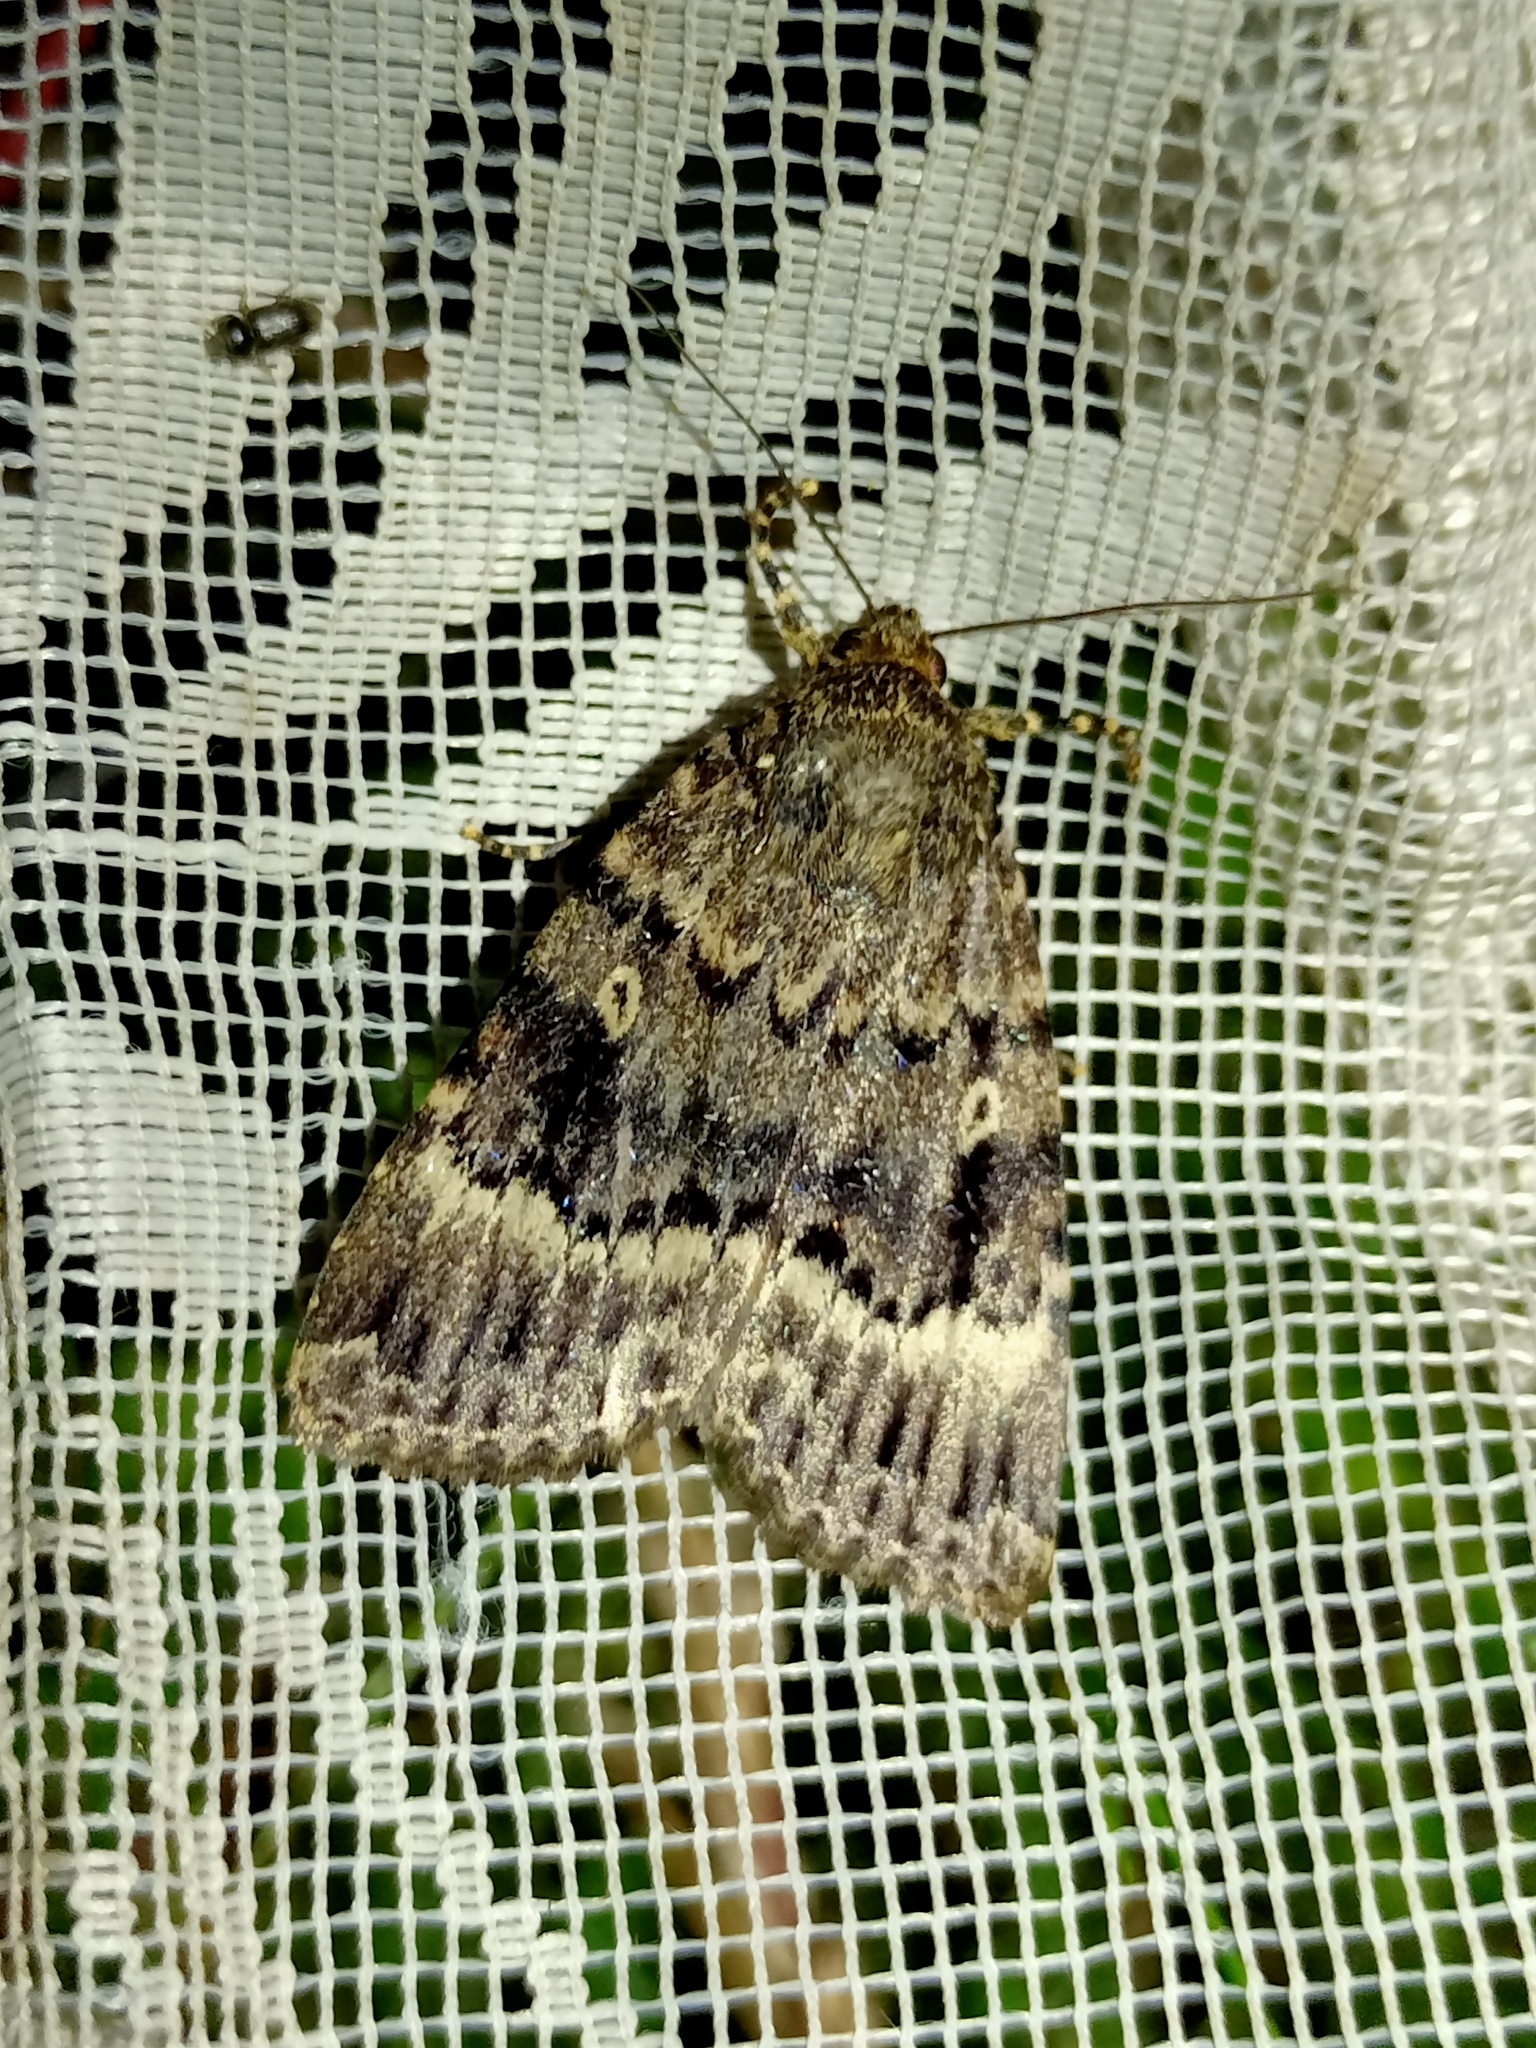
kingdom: Animalia
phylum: Arthropoda
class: Insecta
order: Lepidoptera
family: Noctuidae
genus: Amphipyra
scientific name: Amphipyra berbera
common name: Svensson's copper underwing
